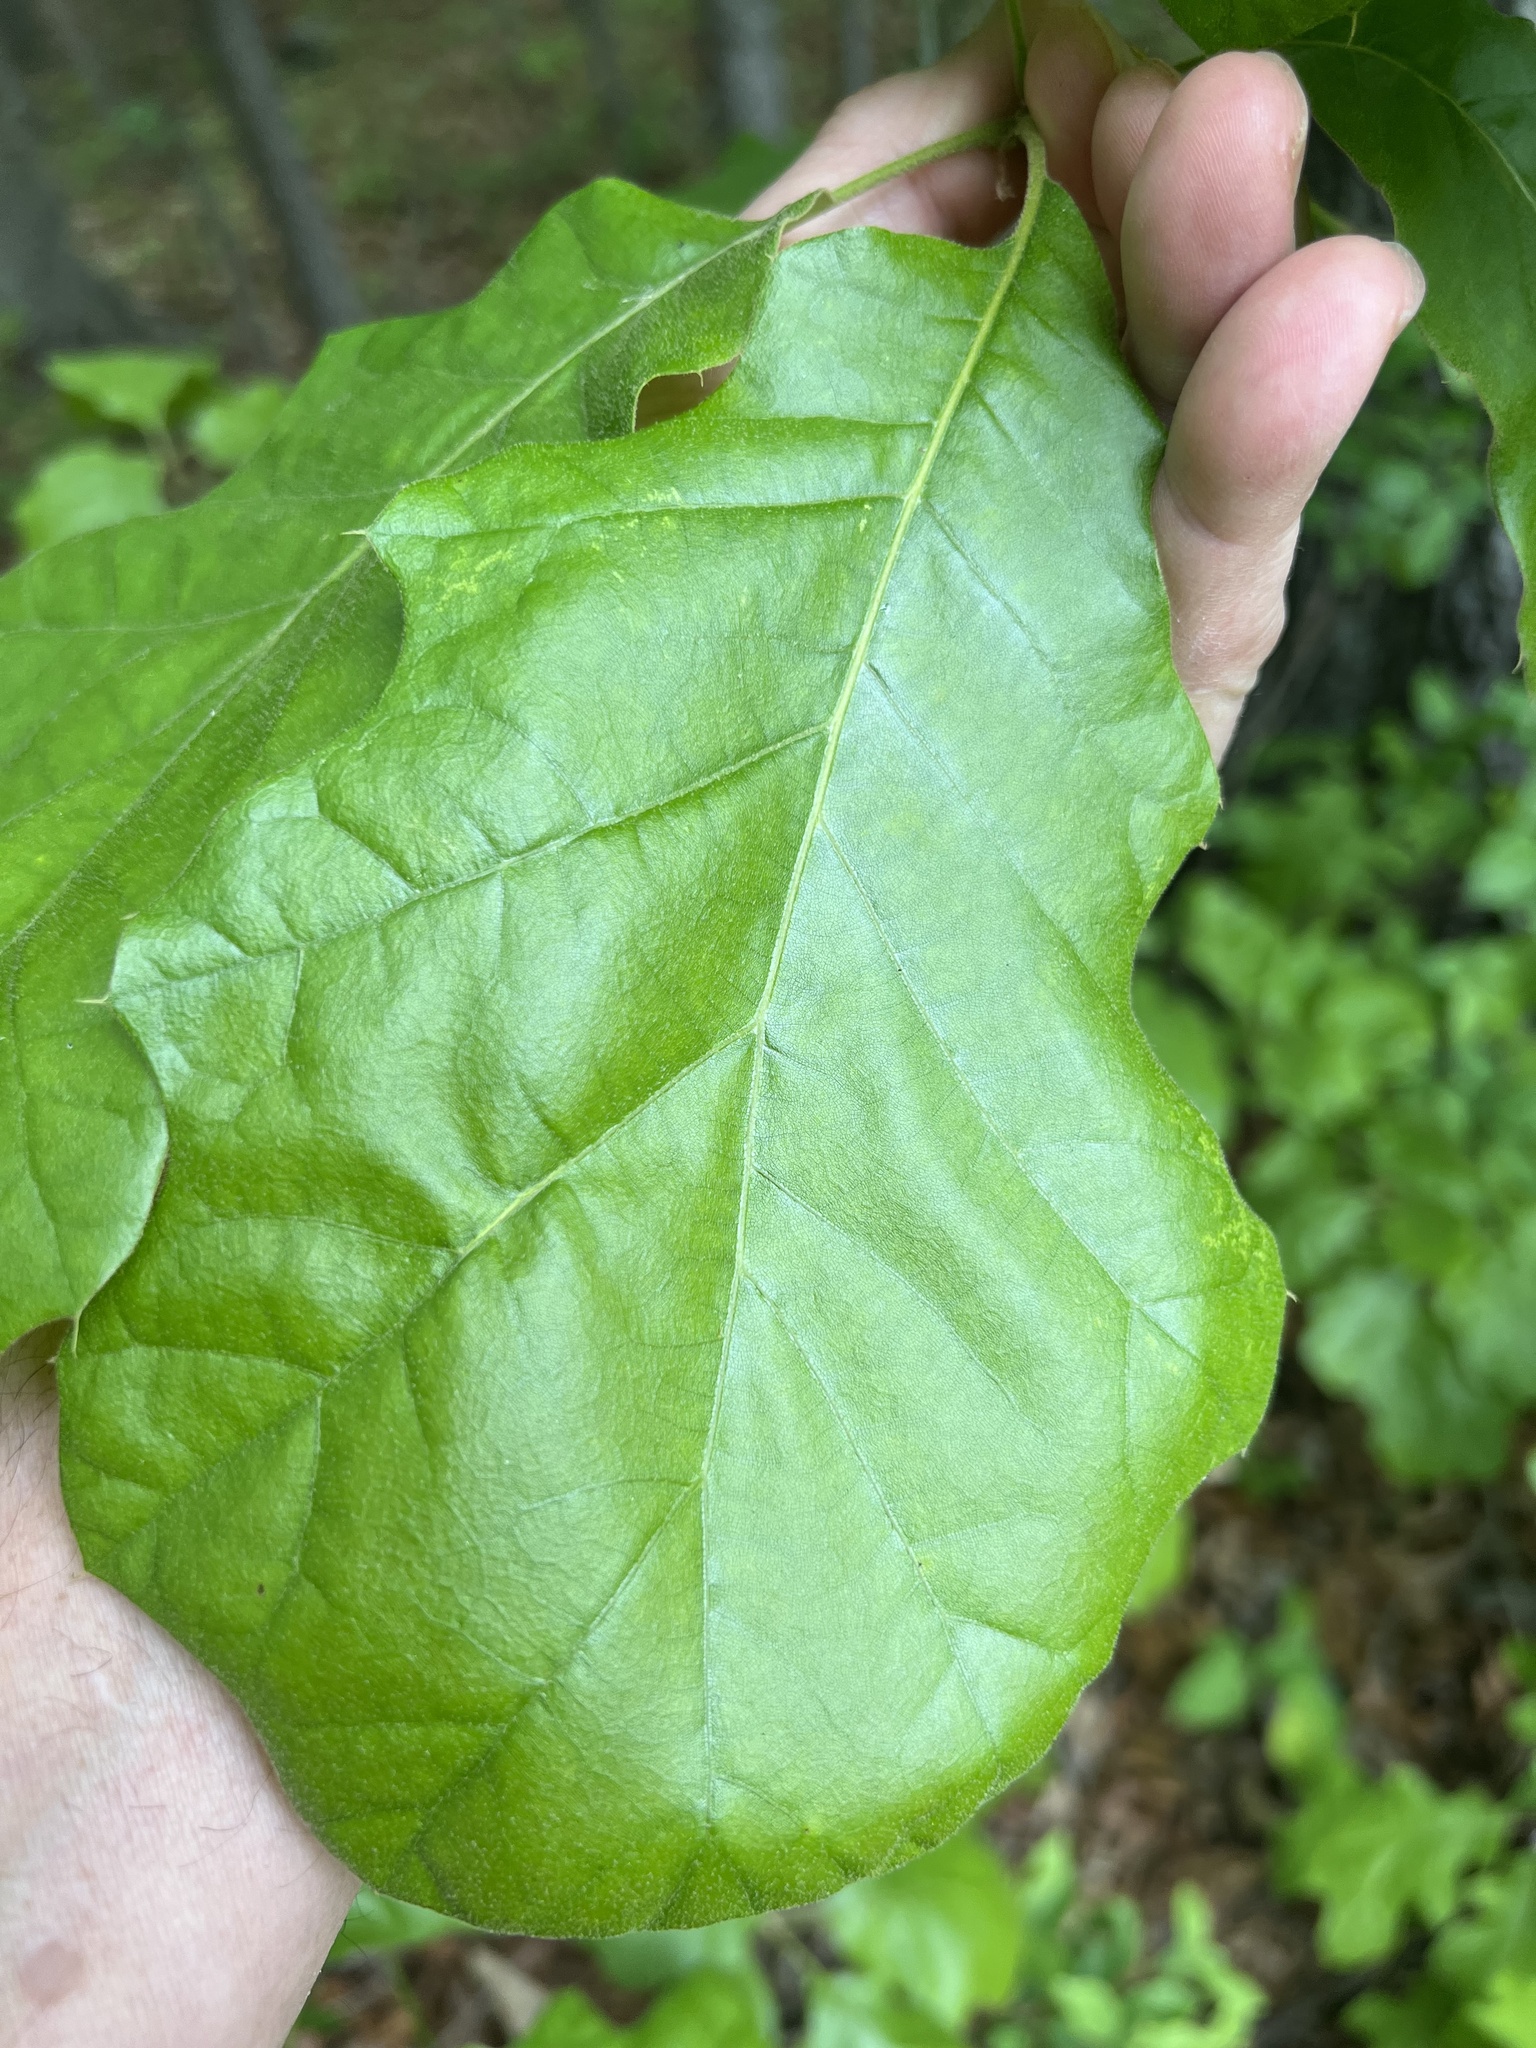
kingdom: Plantae
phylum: Tracheophyta
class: Magnoliopsida
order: Fagales
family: Fagaceae
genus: Quercus
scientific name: Quercus velutina
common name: Black oak
